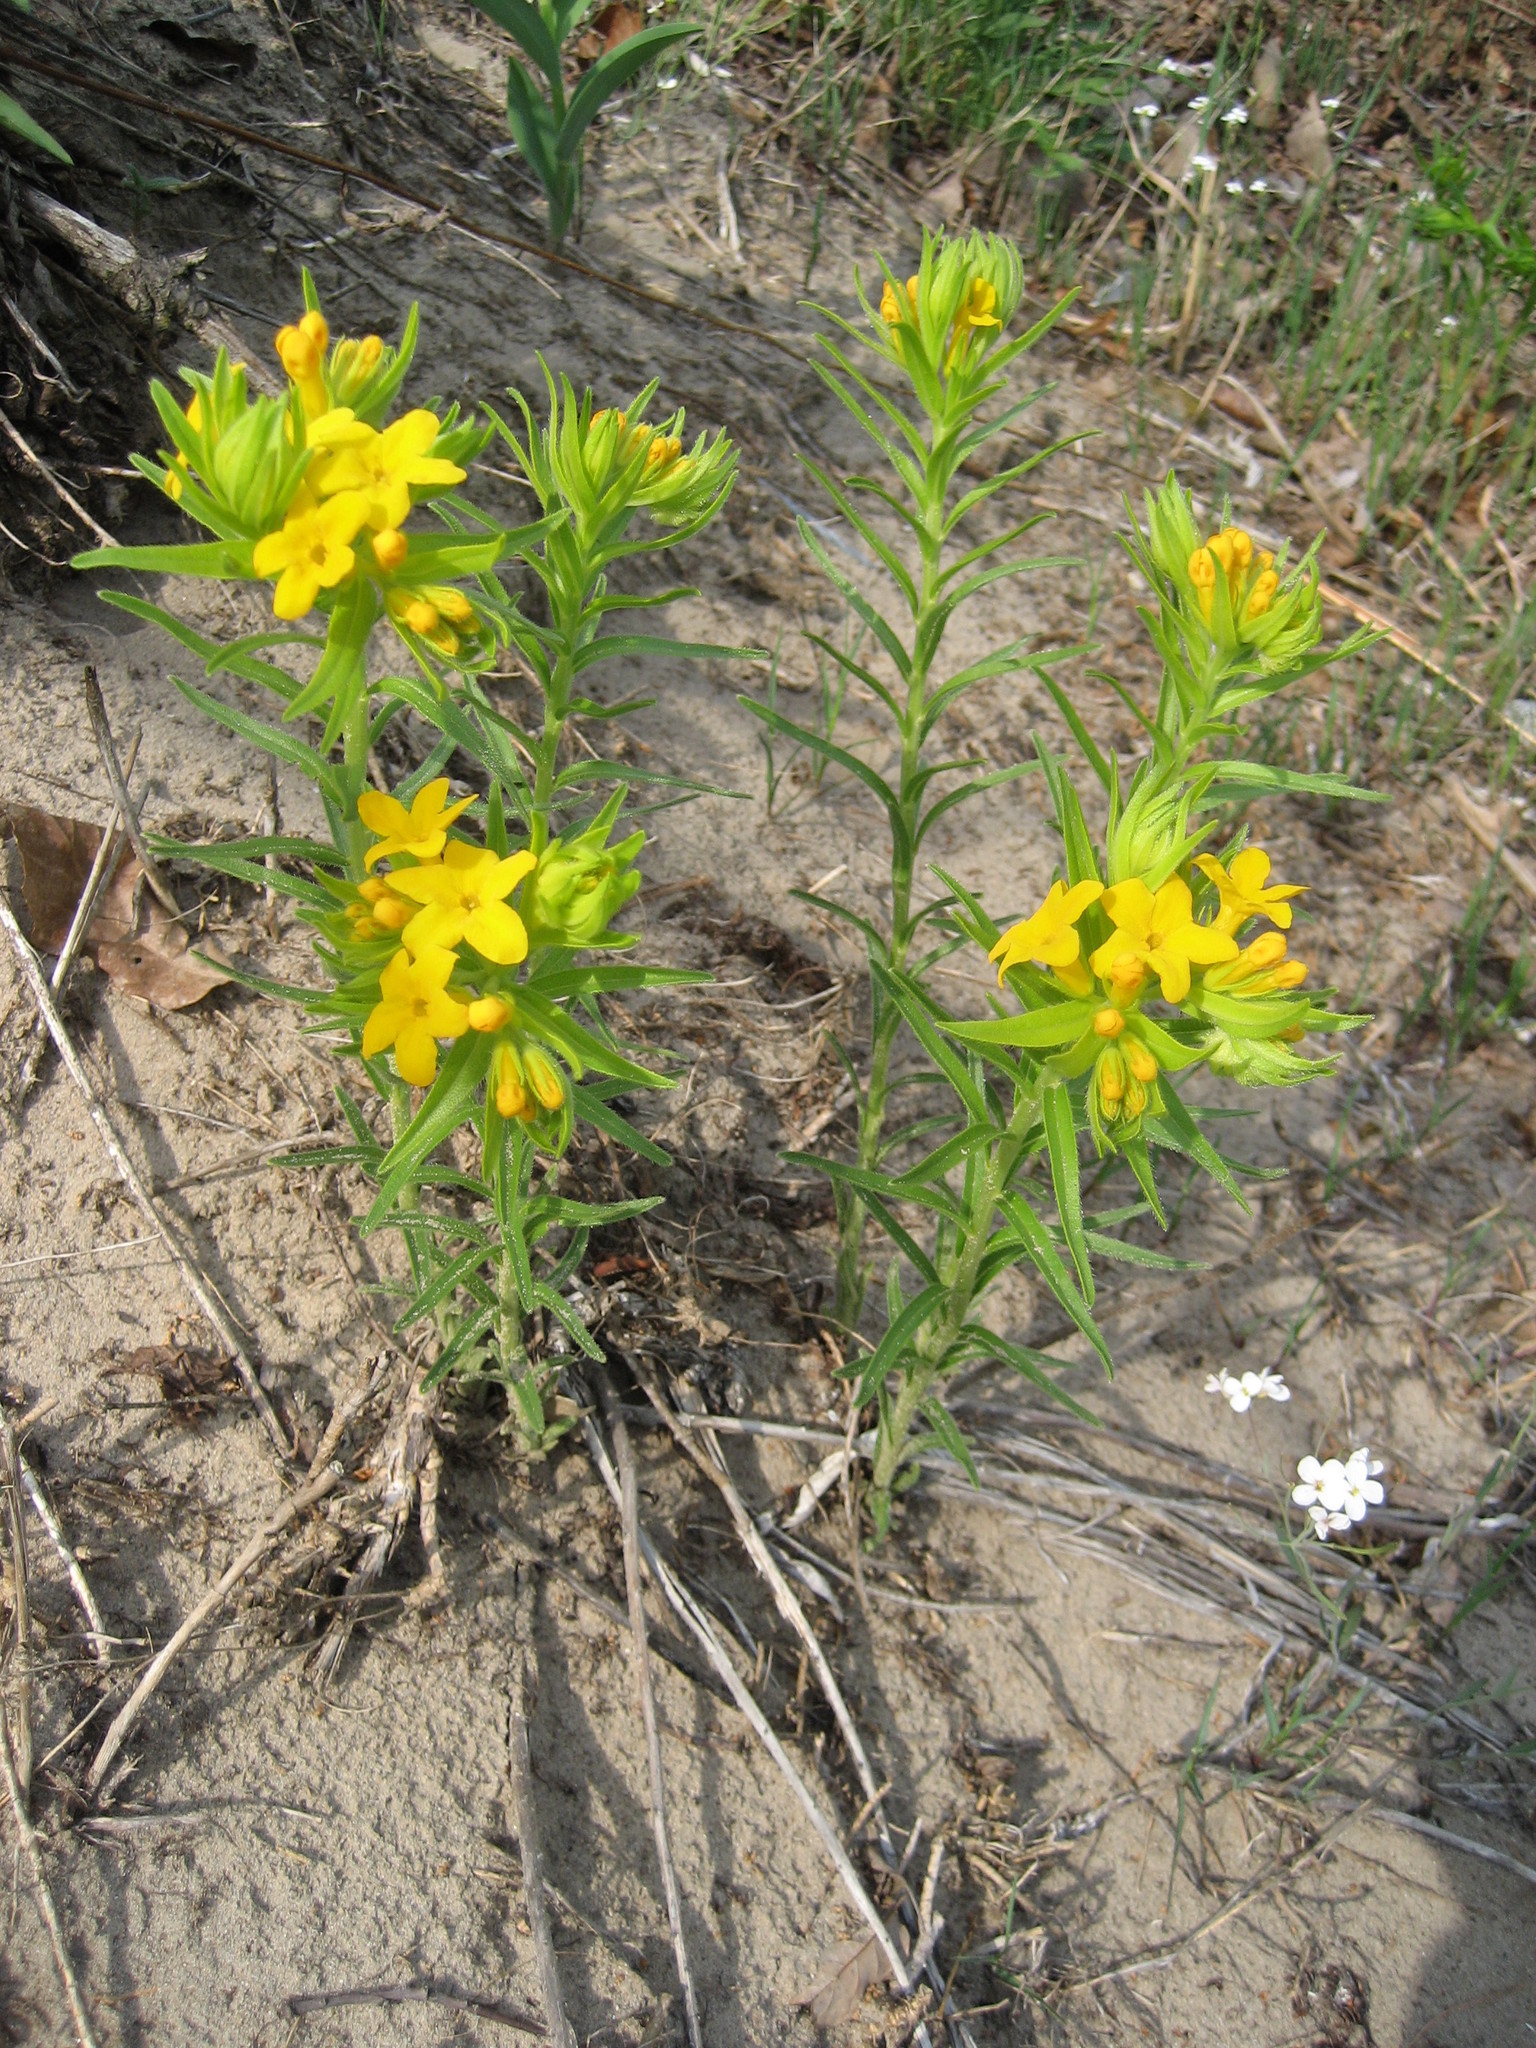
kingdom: Plantae
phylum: Tracheophyta
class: Magnoliopsida
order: Boraginales
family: Boraginaceae
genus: Lithospermum
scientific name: Lithospermum caroliniense
